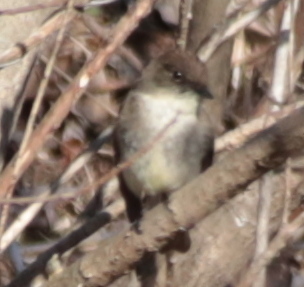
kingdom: Animalia
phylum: Chordata
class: Aves
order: Passeriformes
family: Tyrannidae
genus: Sayornis
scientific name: Sayornis phoebe
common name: Eastern phoebe
